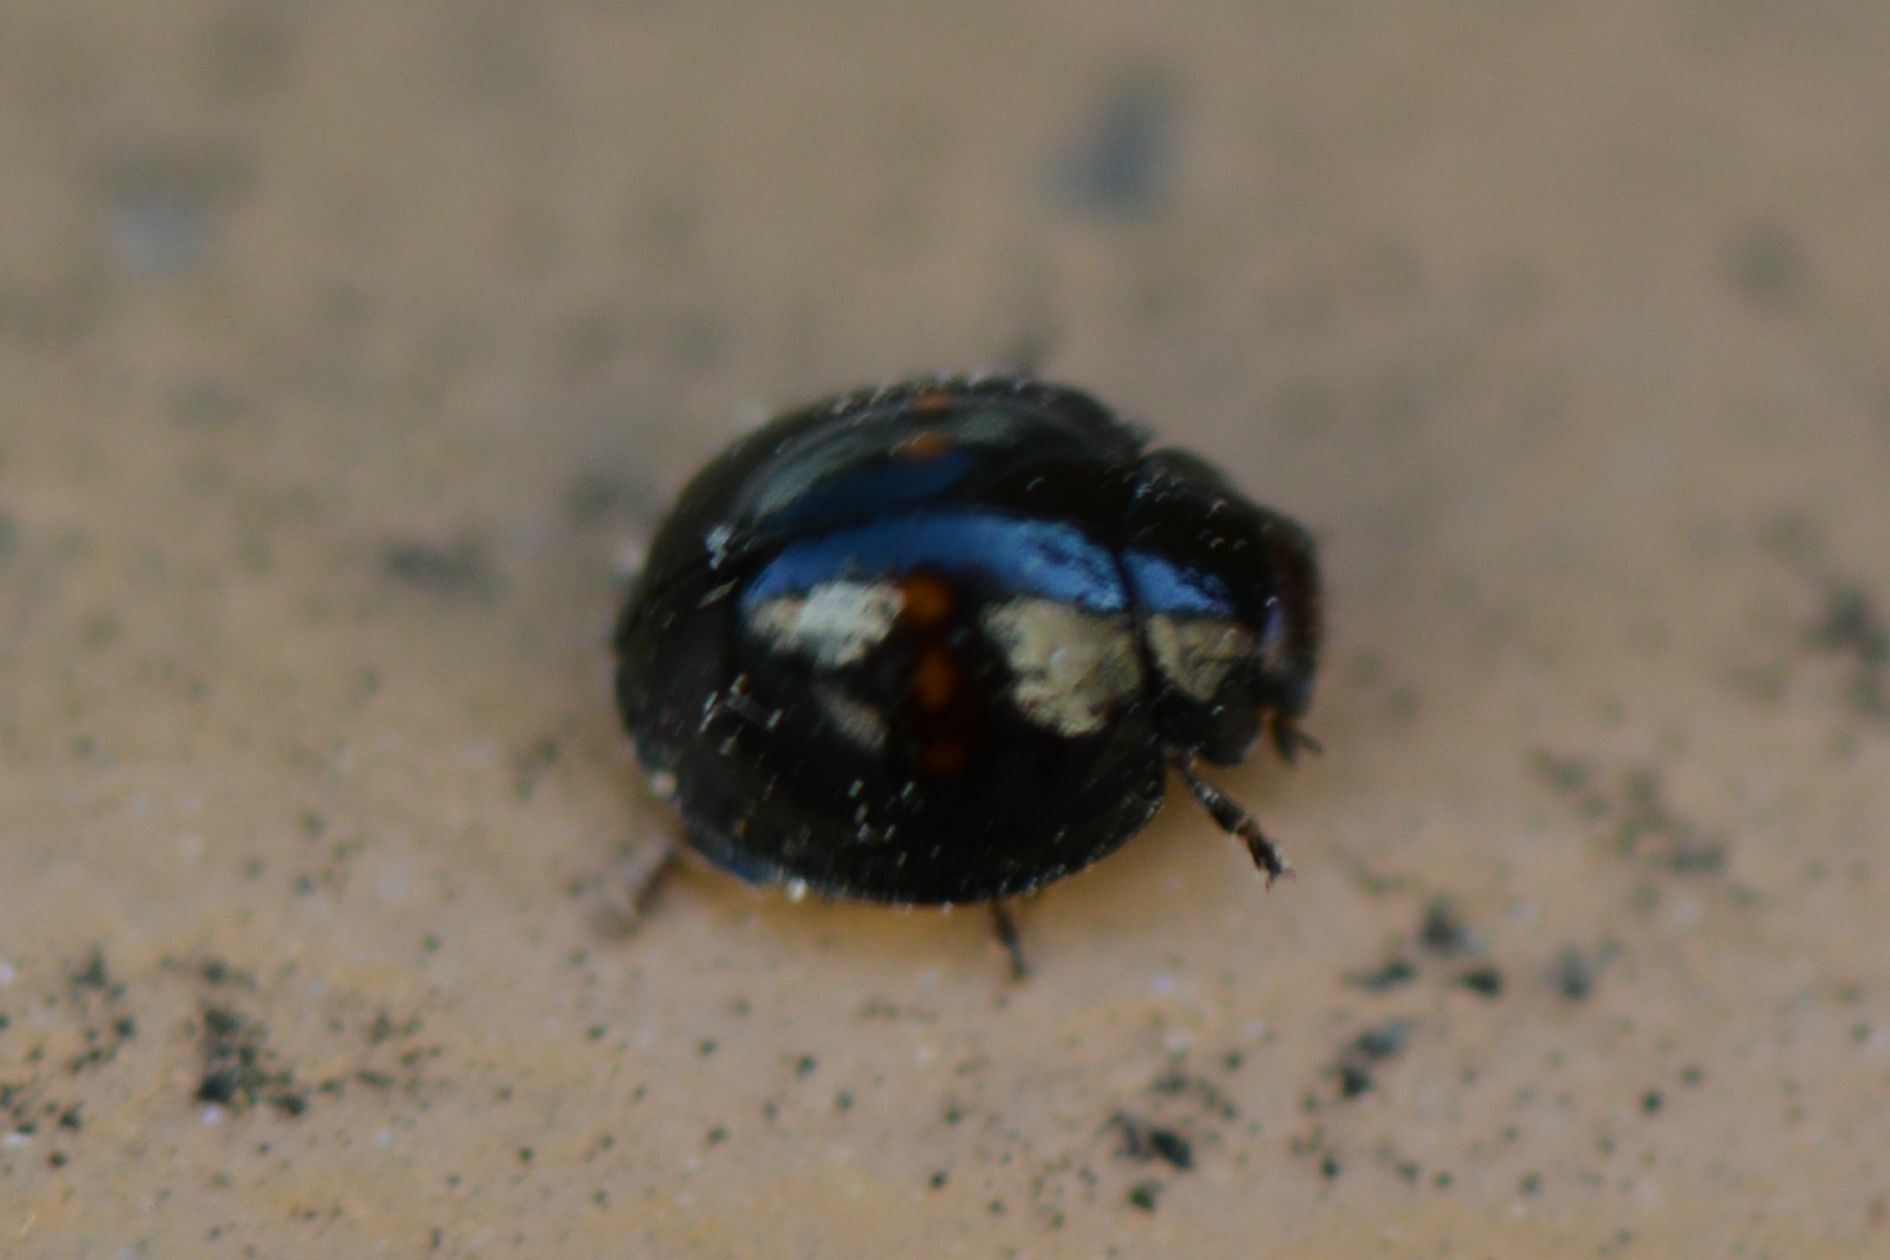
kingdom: Animalia
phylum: Arthropoda
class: Insecta
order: Coleoptera
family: Coccinellidae
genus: Chilocorus
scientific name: Chilocorus bipustulatus
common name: Heather ladybird
